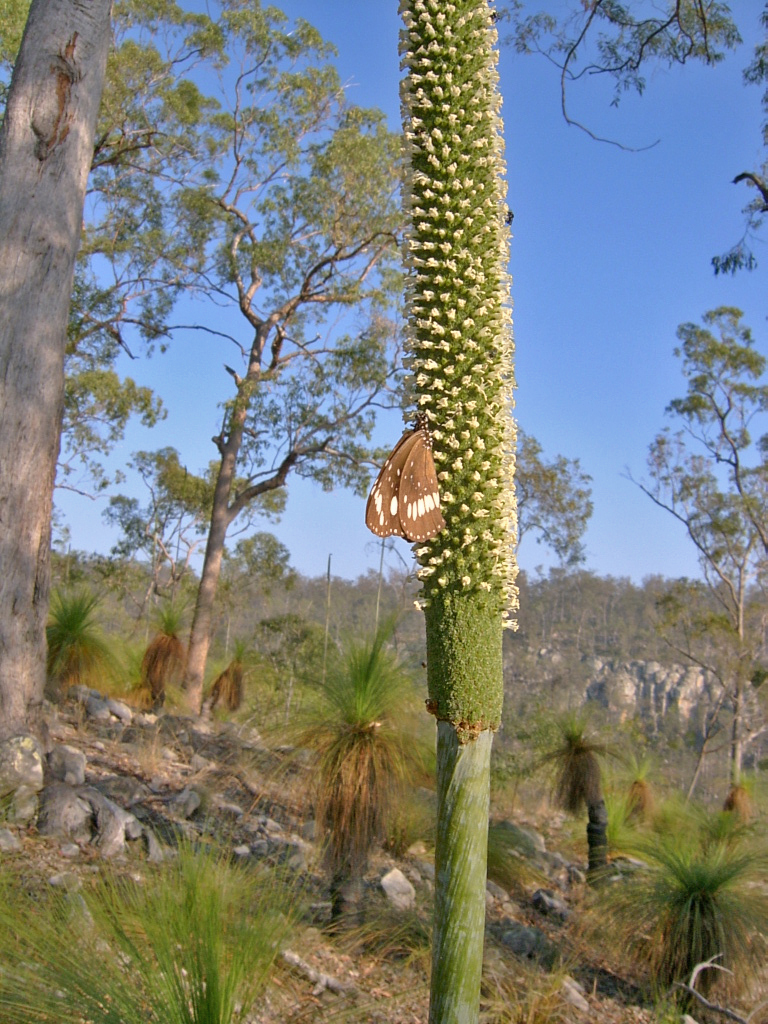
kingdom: Animalia
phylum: Arthropoda
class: Insecta
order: Lepidoptera
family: Nymphalidae
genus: Euploea
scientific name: Euploea core
